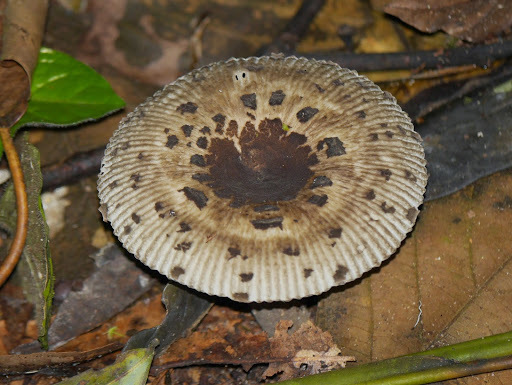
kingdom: Fungi
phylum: Basidiomycota
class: Agaricomycetes
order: Russulales
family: Russulaceae
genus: Russula
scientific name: Russula meleagris
